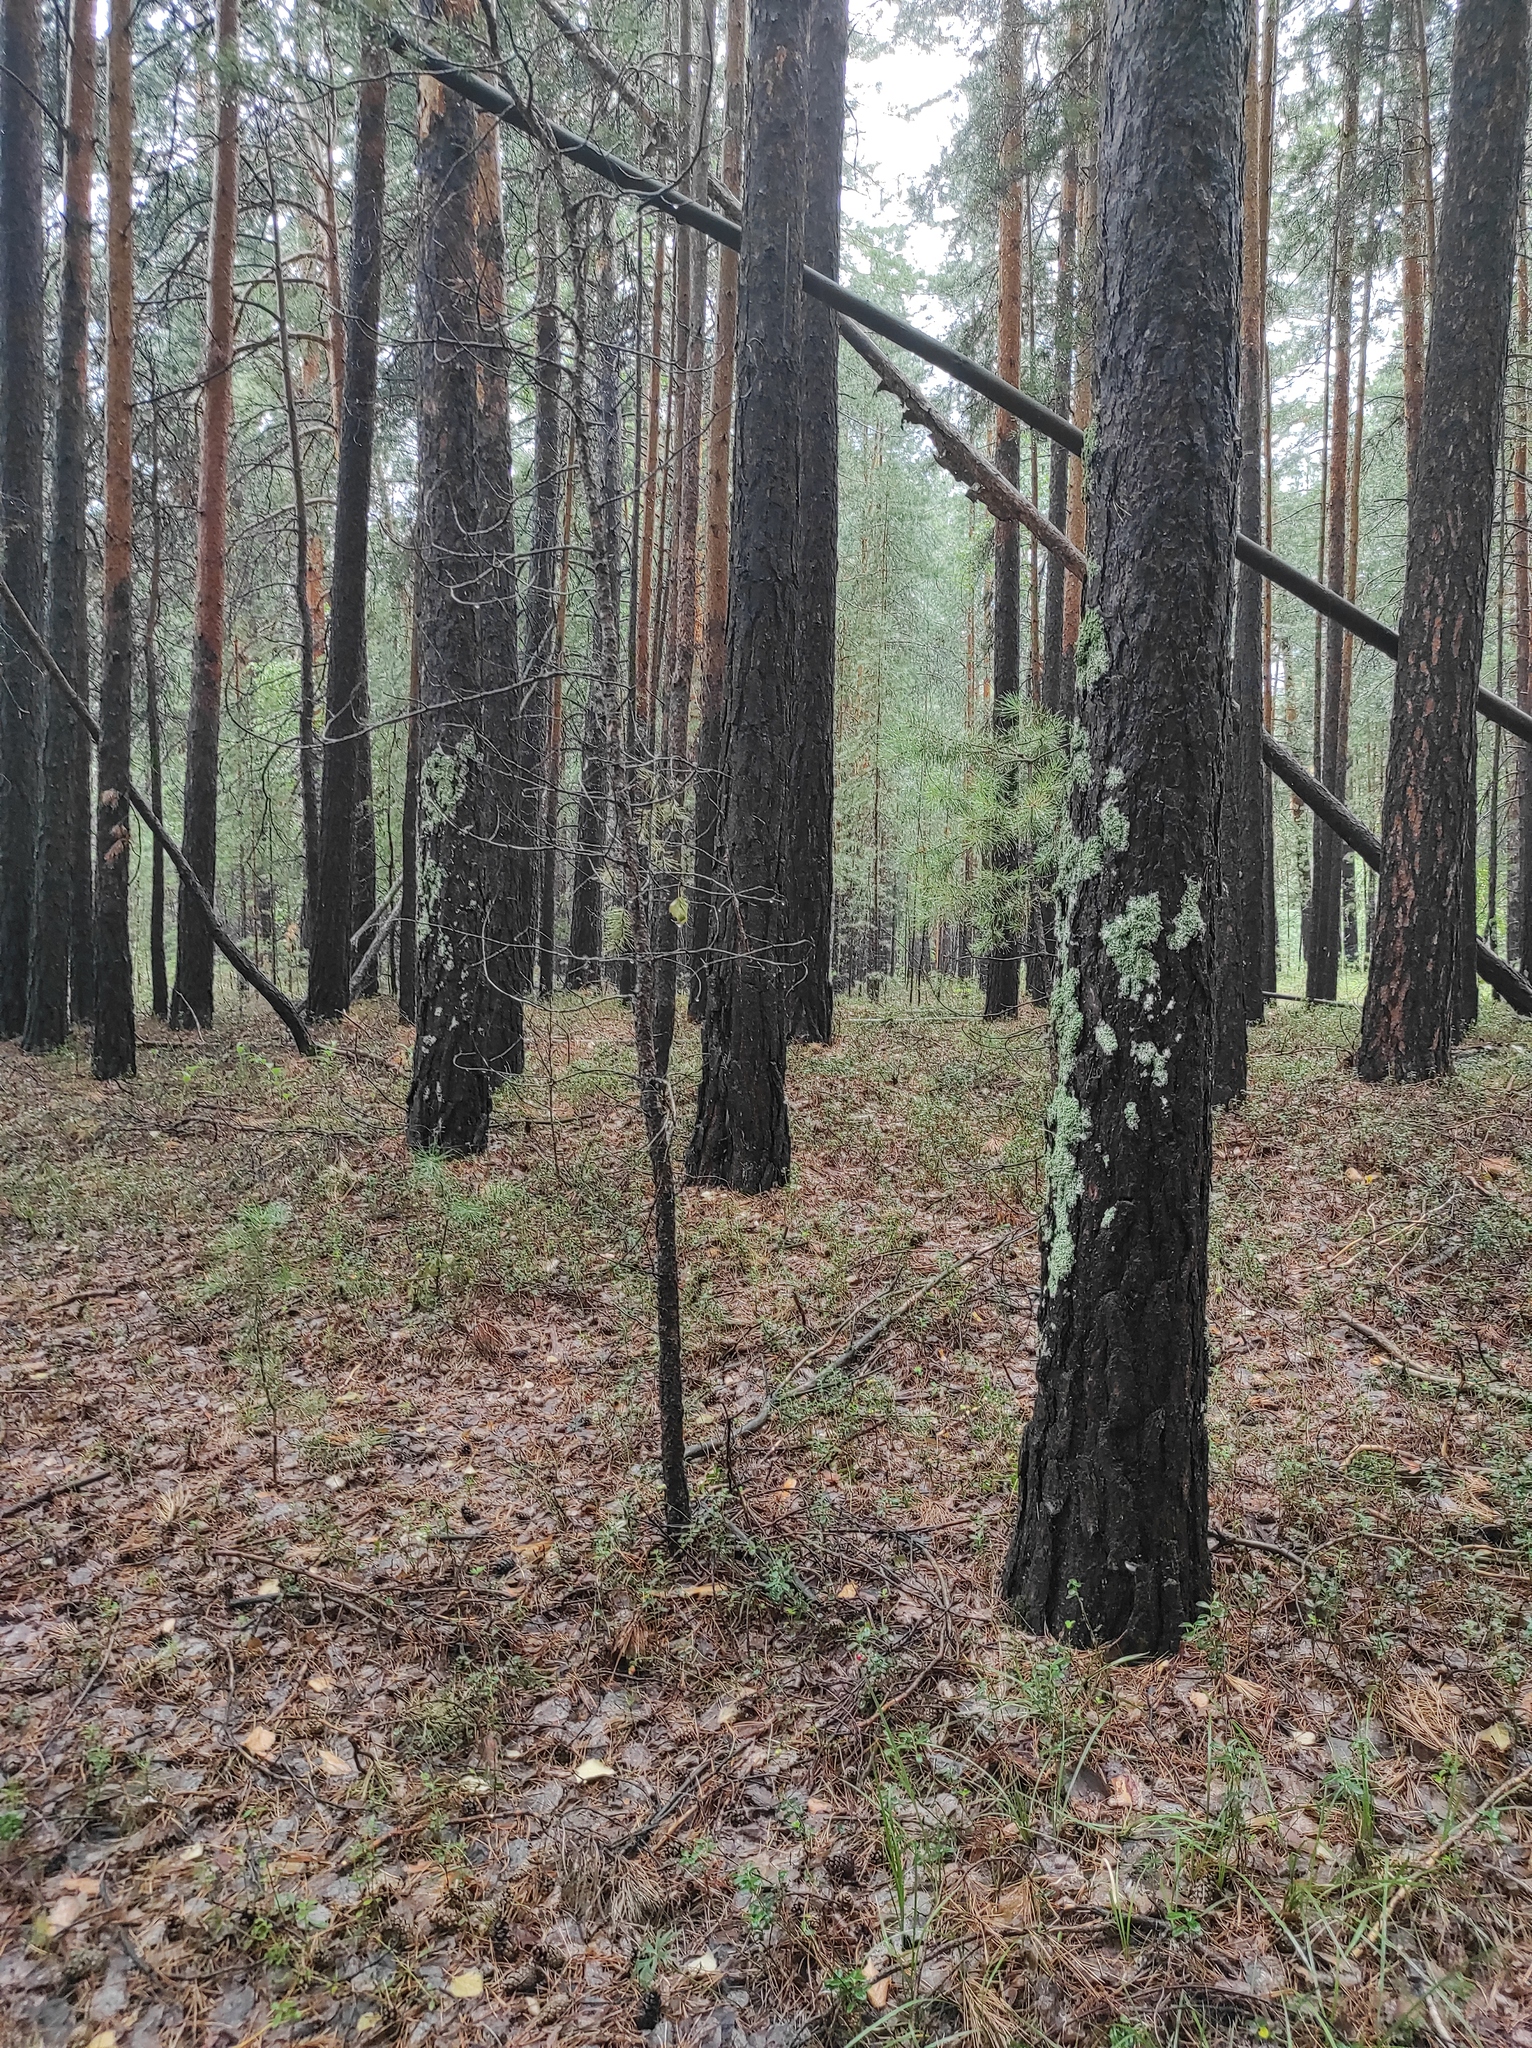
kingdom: Plantae
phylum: Tracheophyta
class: Pinopsida
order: Pinales
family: Pinaceae
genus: Pinus
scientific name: Pinus sylvestris
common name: Scots pine
